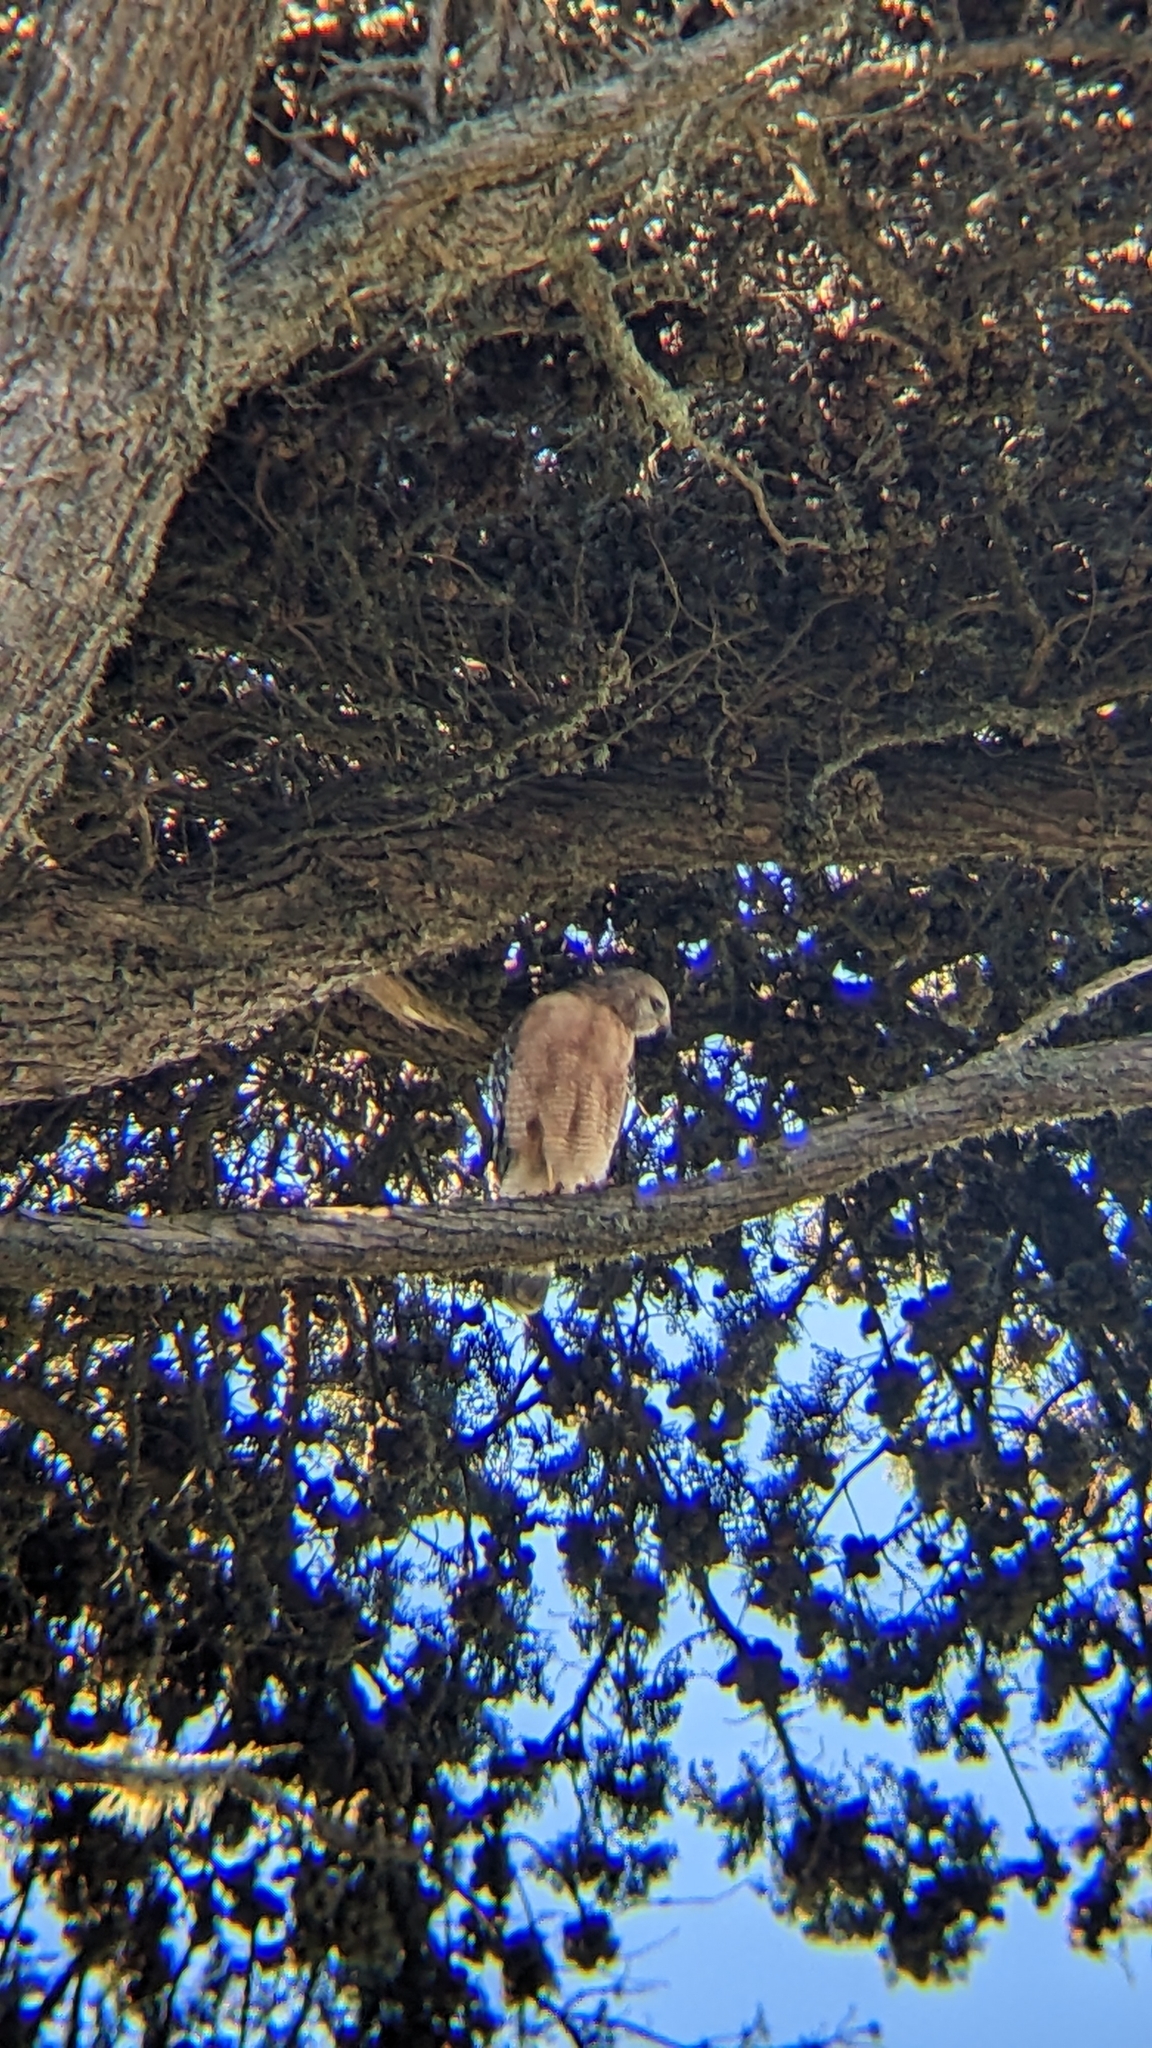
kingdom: Animalia
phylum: Chordata
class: Aves
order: Accipitriformes
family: Accipitridae
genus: Buteo
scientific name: Buteo lineatus
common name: Red-shouldered hawk
